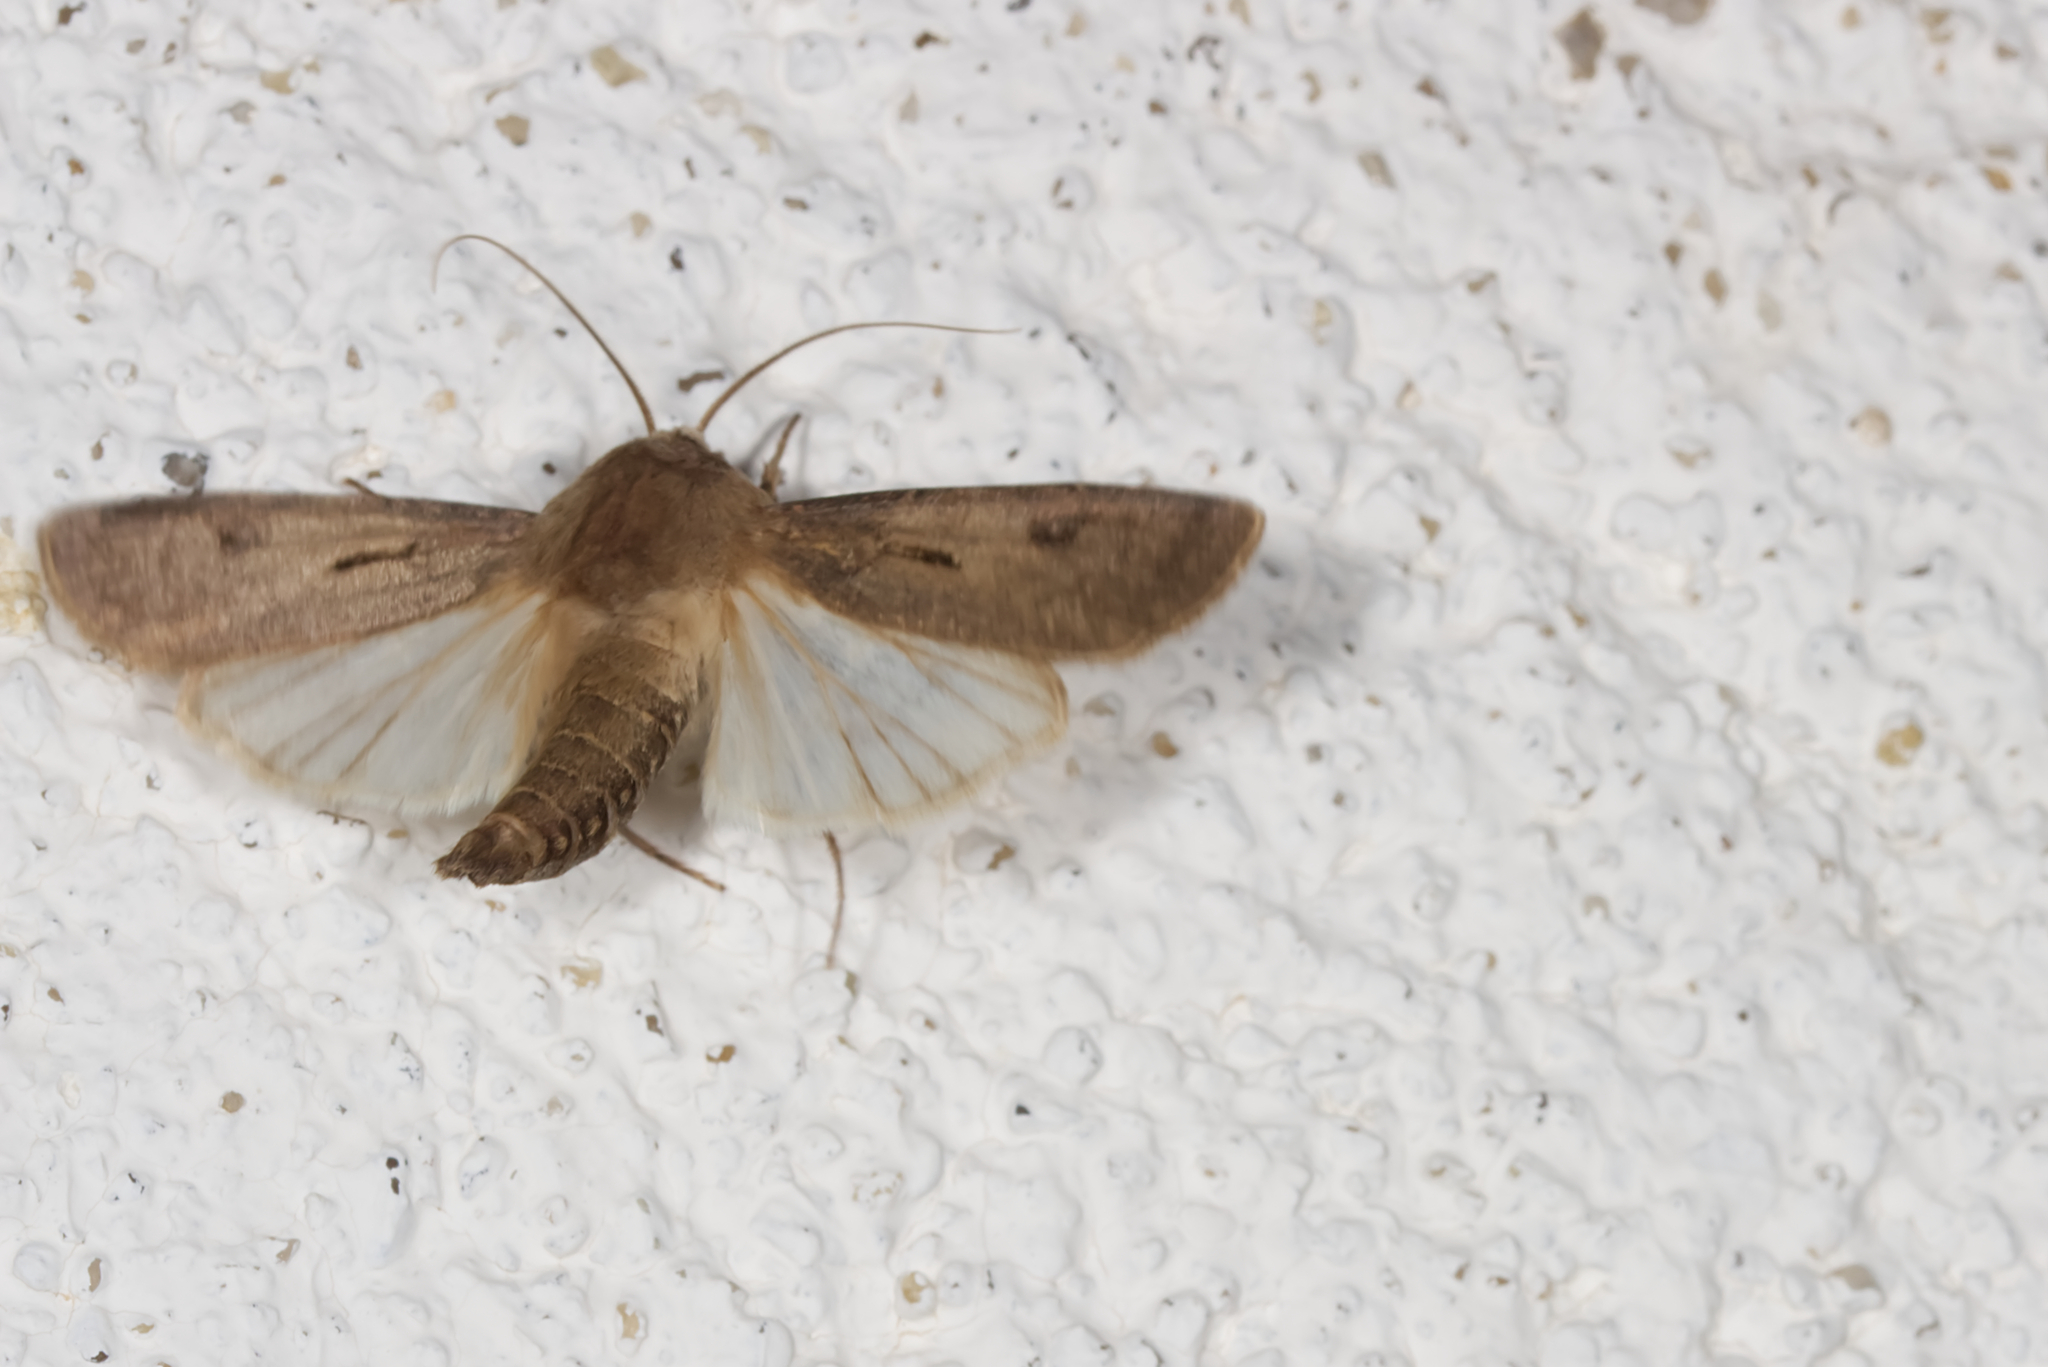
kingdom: Animalia
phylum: Arthropoda
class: Insecta
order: Lepidoptera
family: Noctuidae
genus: Agrotis
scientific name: Agrotis exclamationis
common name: Heart and dart
